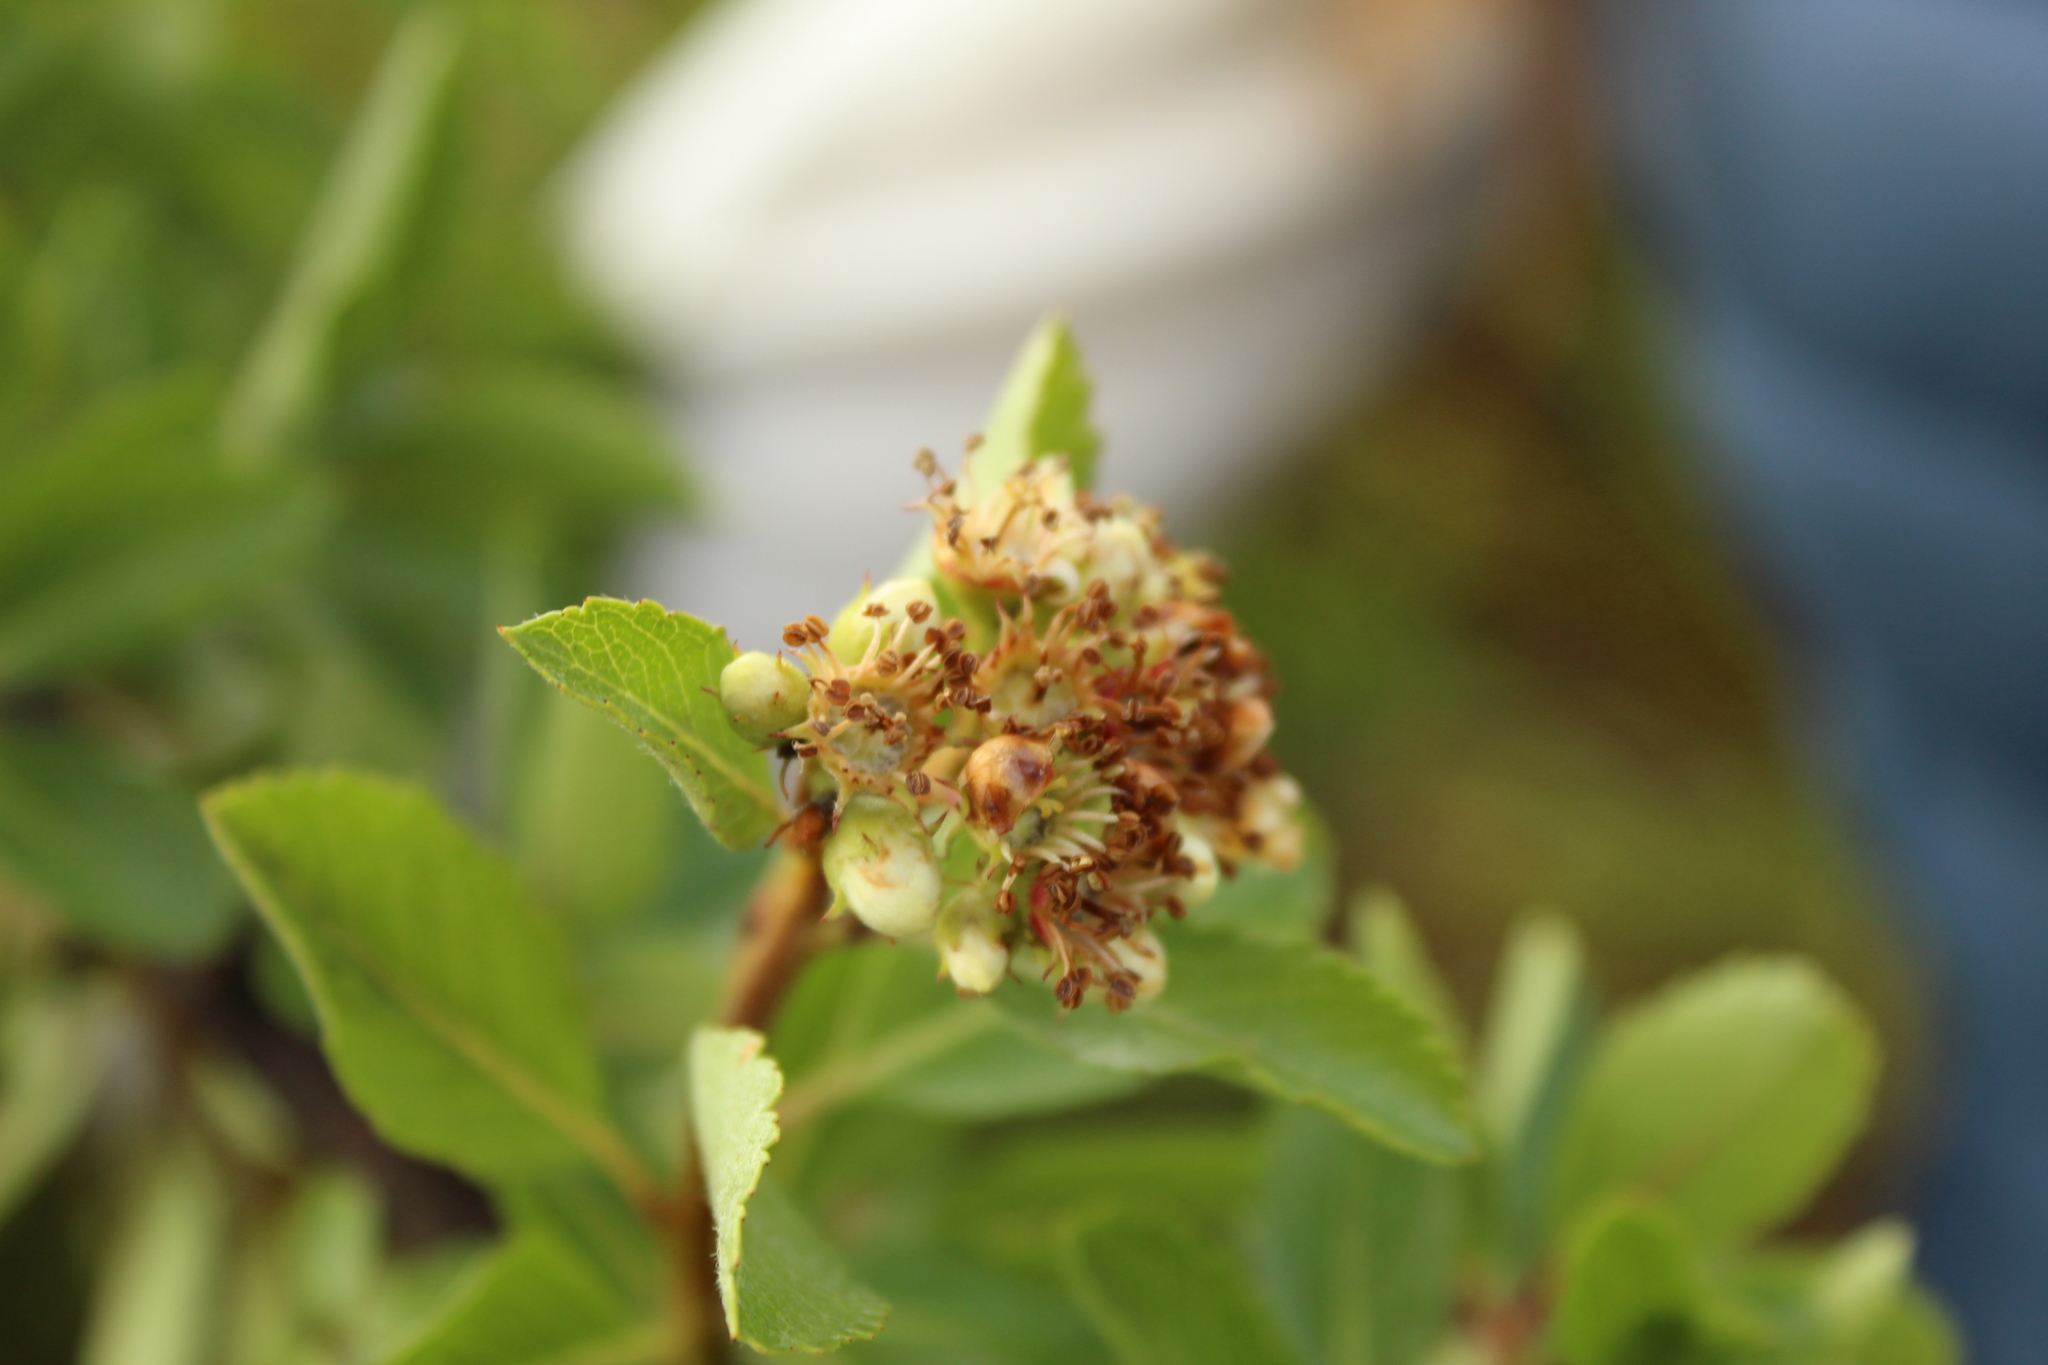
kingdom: Plantae
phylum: Tracheophyta
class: Magnoliopsida
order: Rosales
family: Rosaceae
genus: Hesperomeles
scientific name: Hesperomeles obtusifolia
